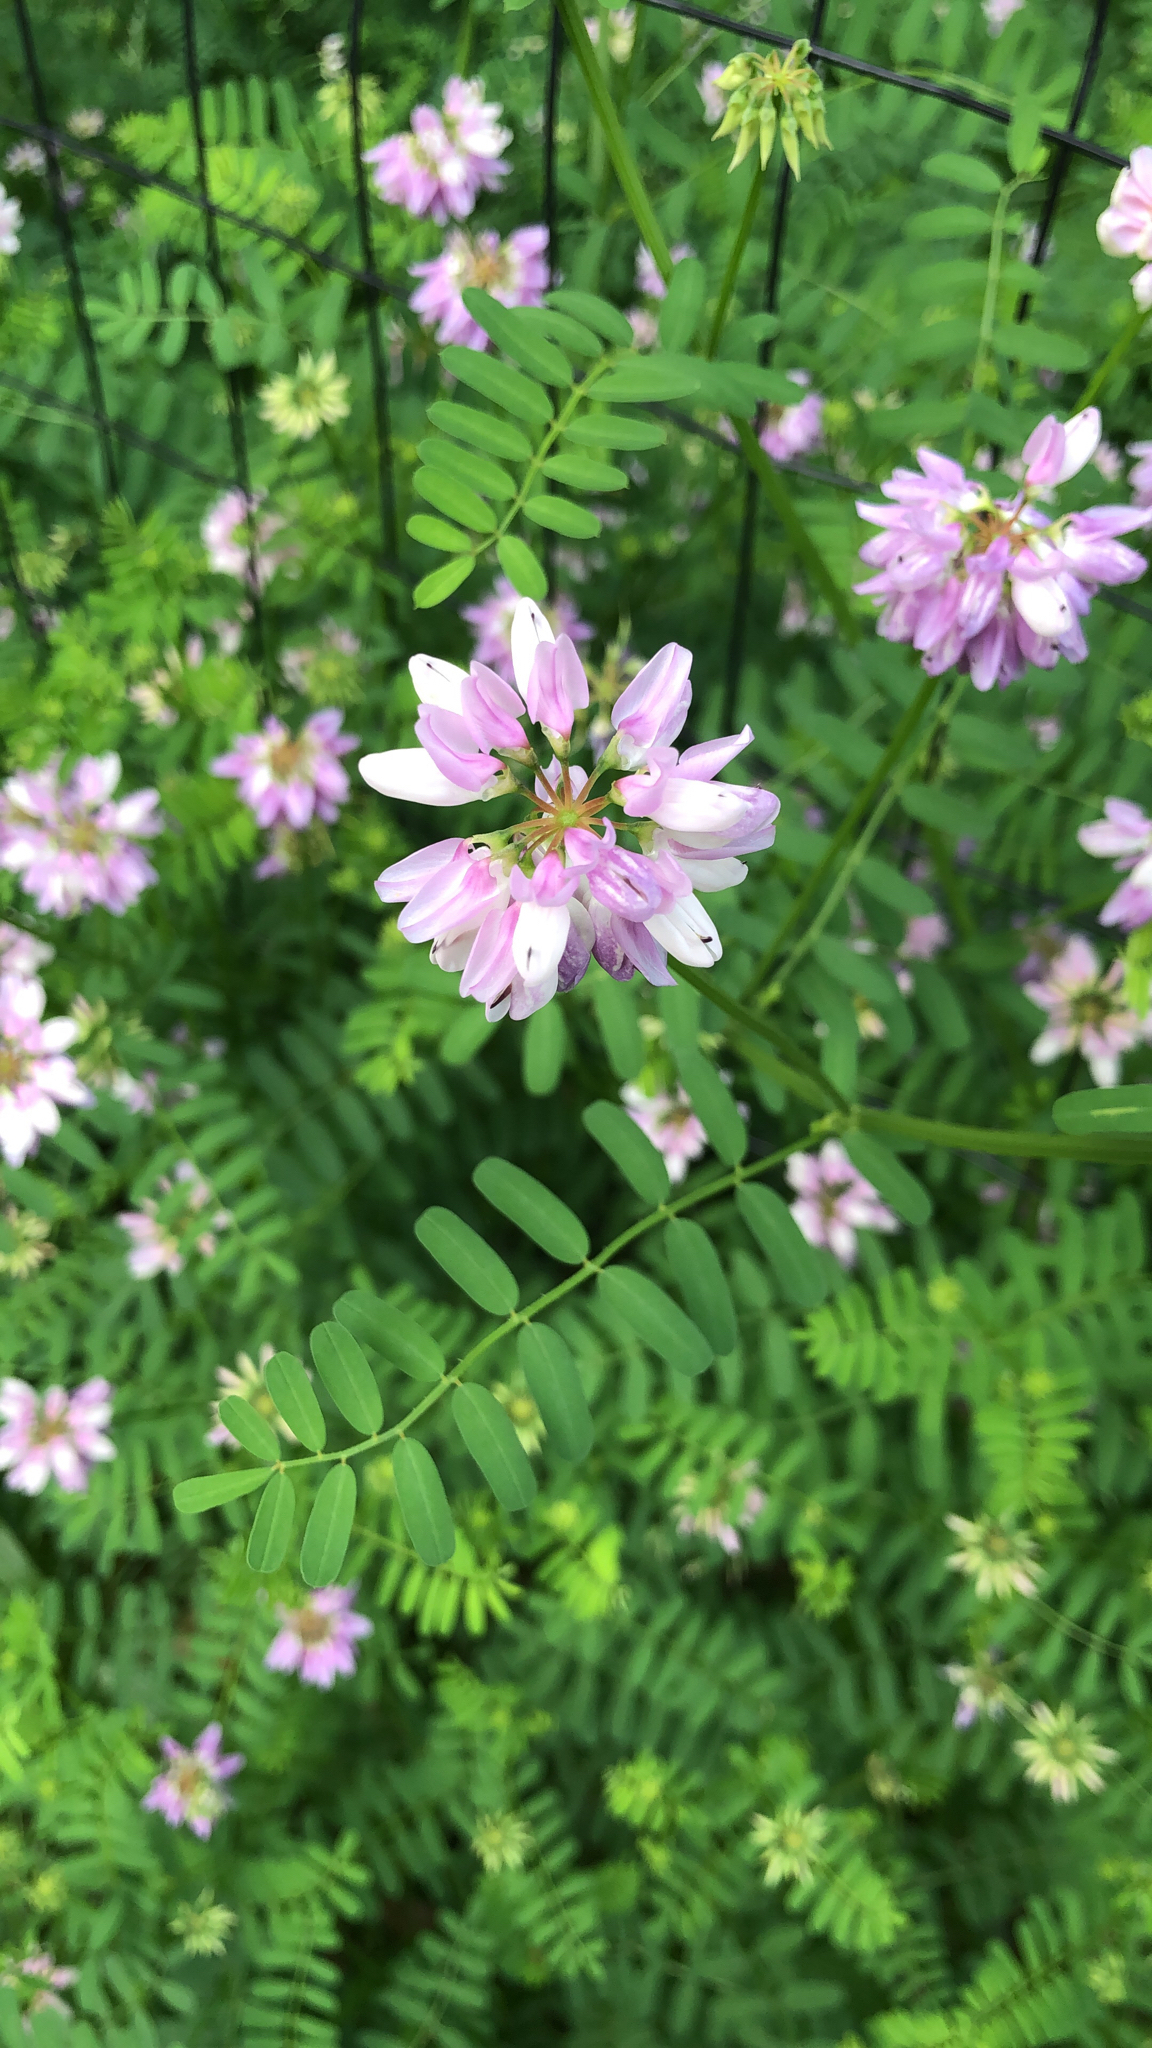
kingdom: Plantae
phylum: Tracheophyta
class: Magnoliopsida
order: Fabales
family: Fabaceae
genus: Coronilla
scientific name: Coronilla varia
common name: Crownvetch
